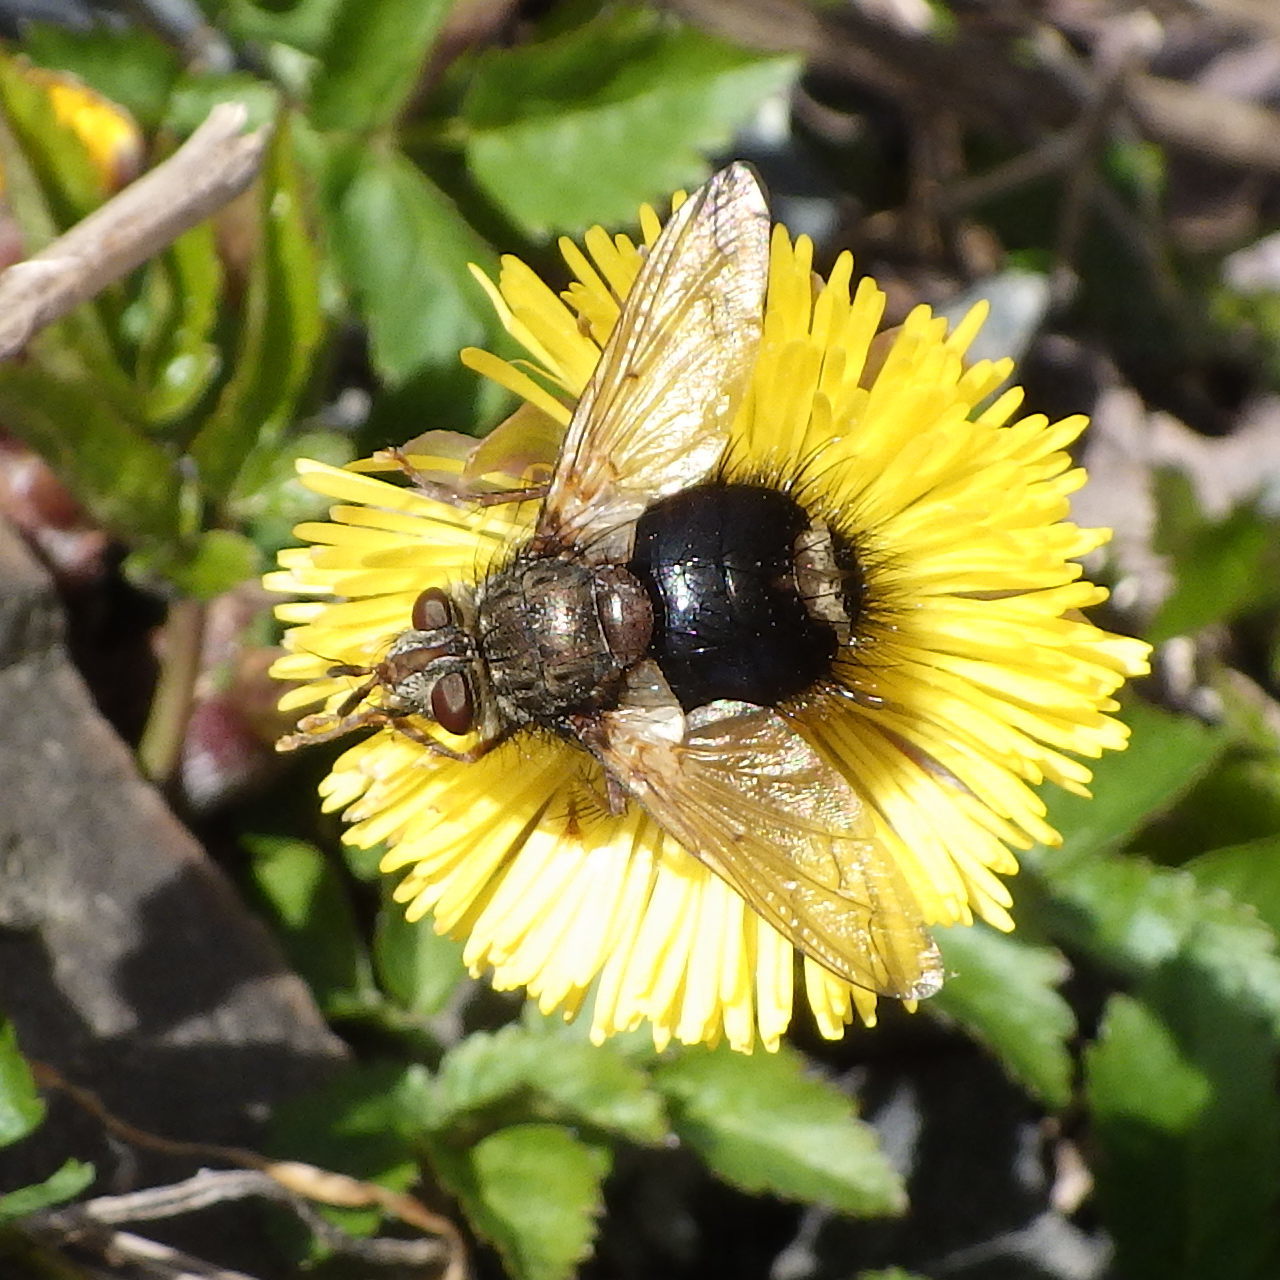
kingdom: Animalia
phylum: Arthropoda
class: Insecta
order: Diptera
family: Tachinidae
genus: Epalpus
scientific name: Epalpus signifer
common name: Early tachinid fly
